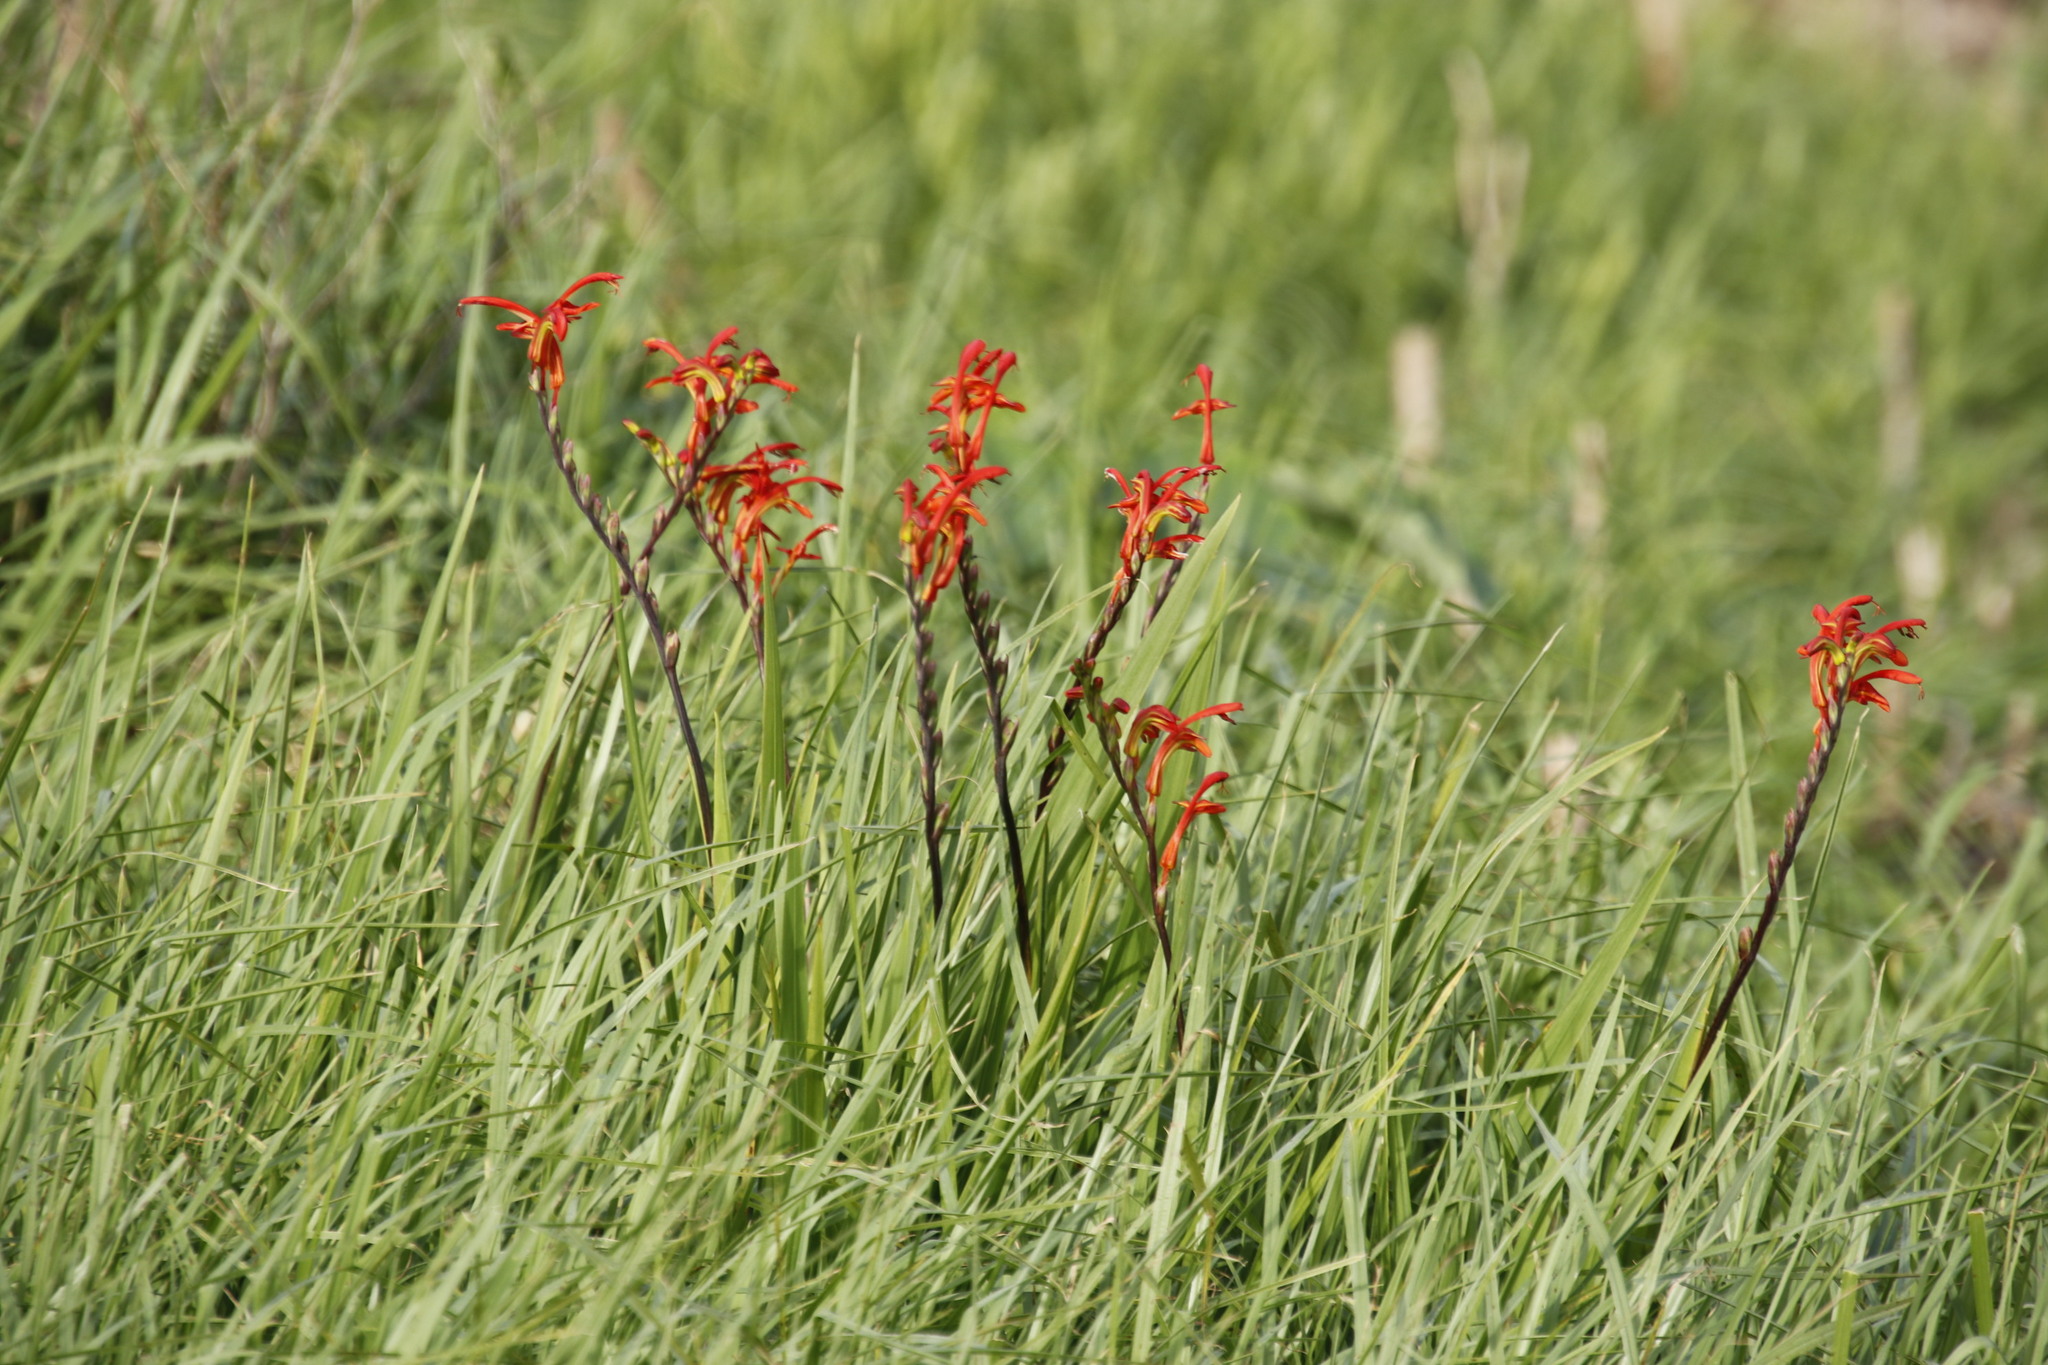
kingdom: Plantae
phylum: Tracheophyta
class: Liliopsida
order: Asparagales
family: Iridaceae
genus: Chasmanthe
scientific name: Chasmanthe aethiopica
